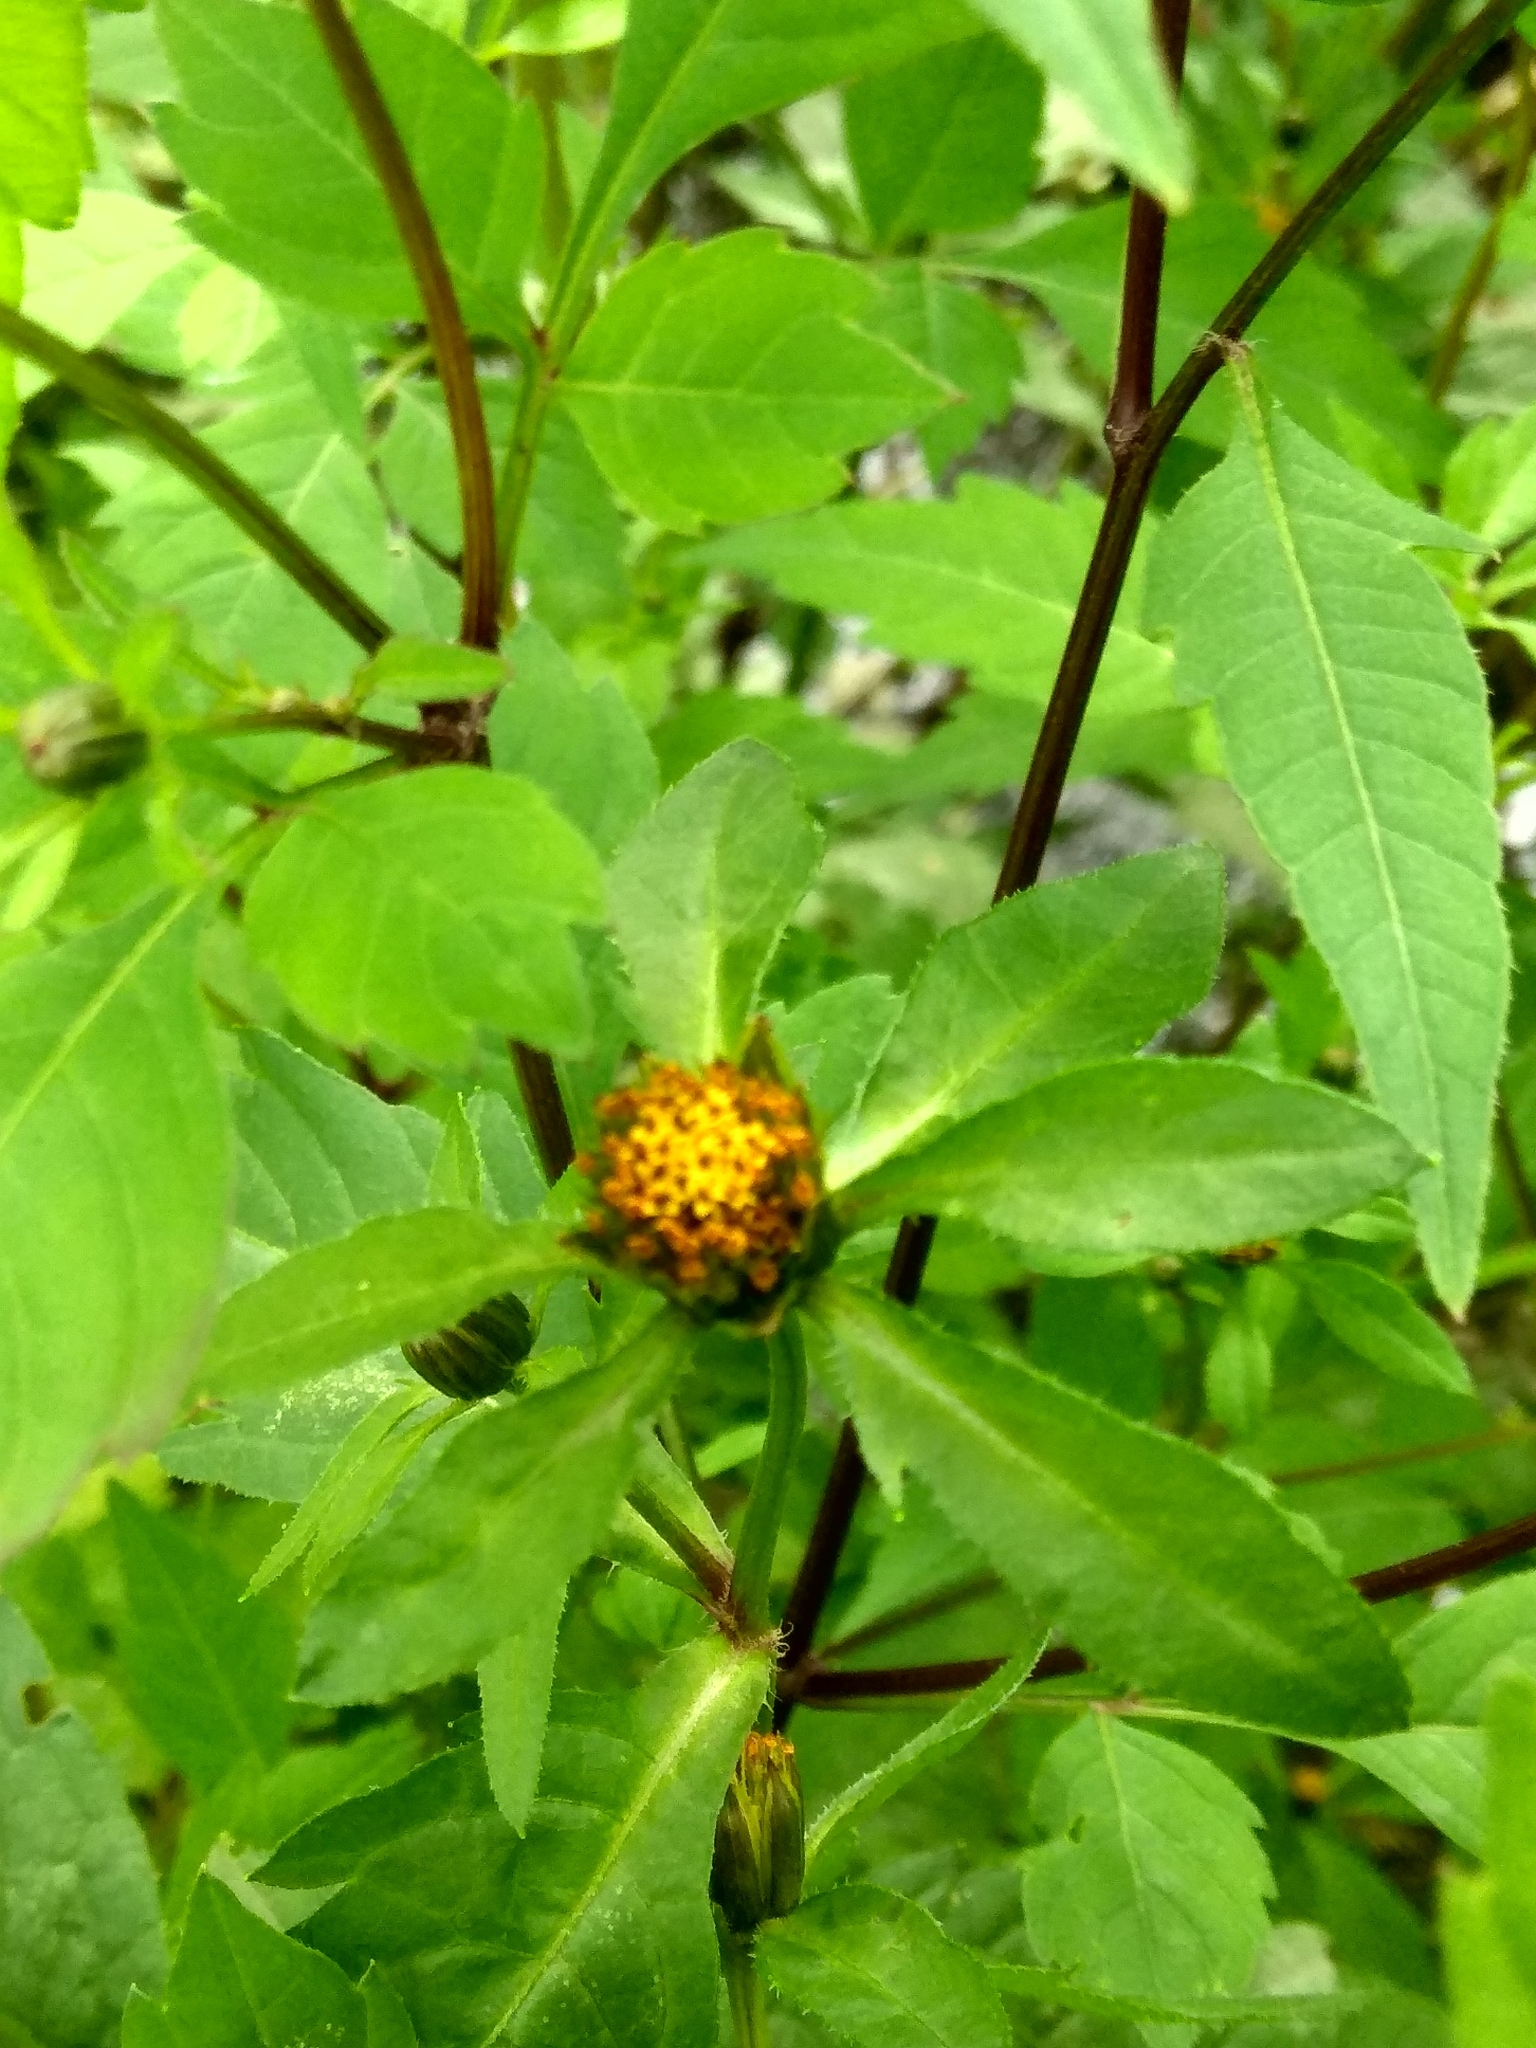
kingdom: Plantae
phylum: Tracheophyta
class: Magnoliopsida
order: Asterales
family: Asteraceae
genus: Bidens
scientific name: Bidens frondosa
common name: Beggarticks
